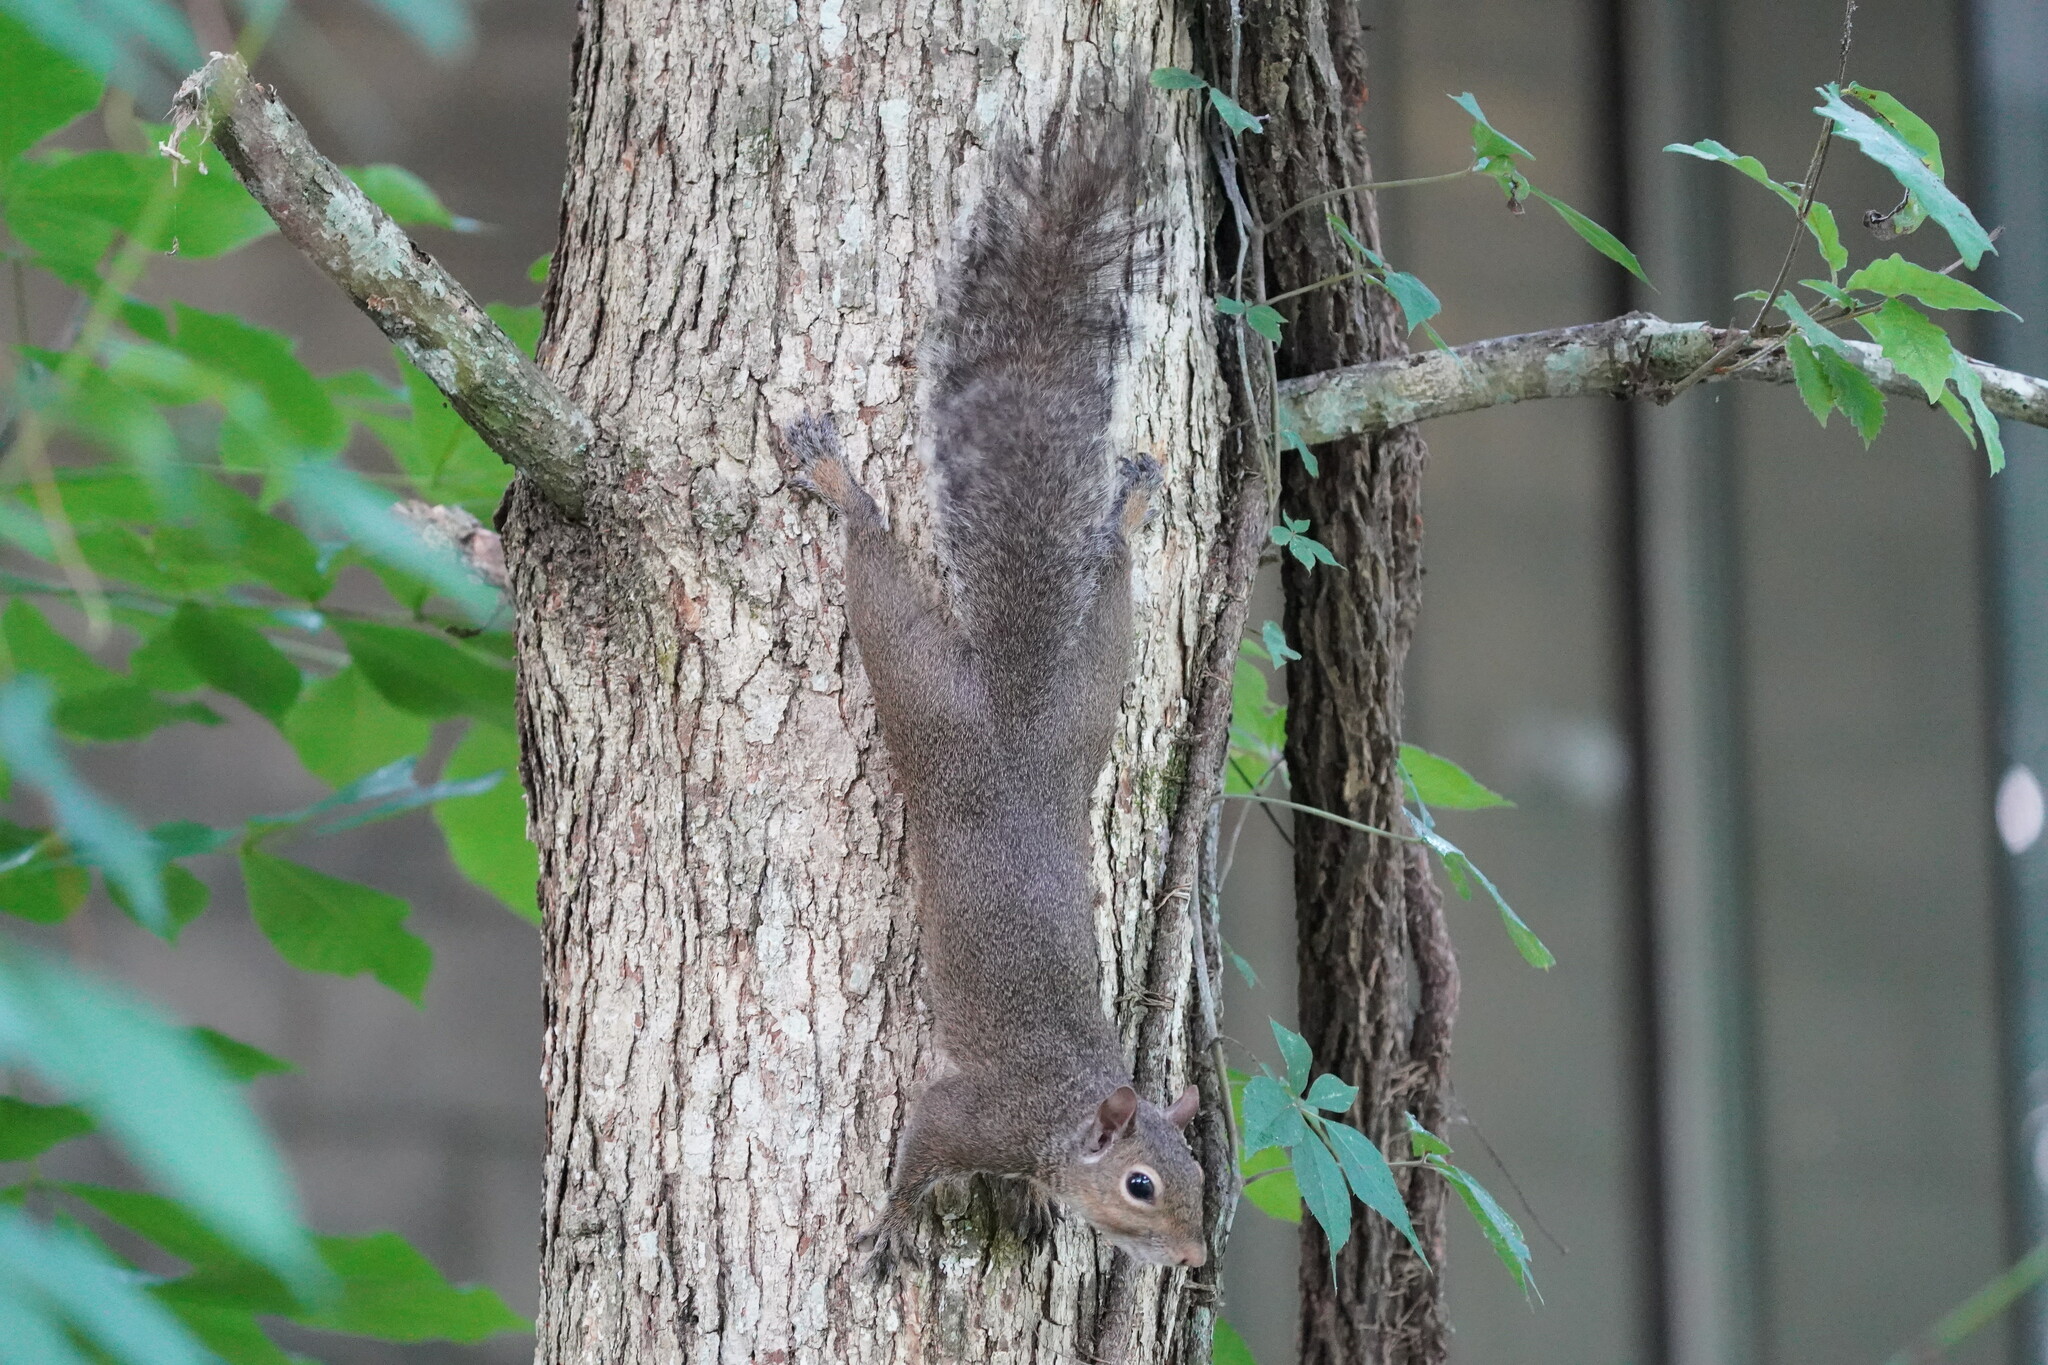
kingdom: Animalia
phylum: Chordata
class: Mammalia
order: Rodentia
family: Sciuridae
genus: Sciurus
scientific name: Sciurus carolinensis
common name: Eastern gray squirrel
